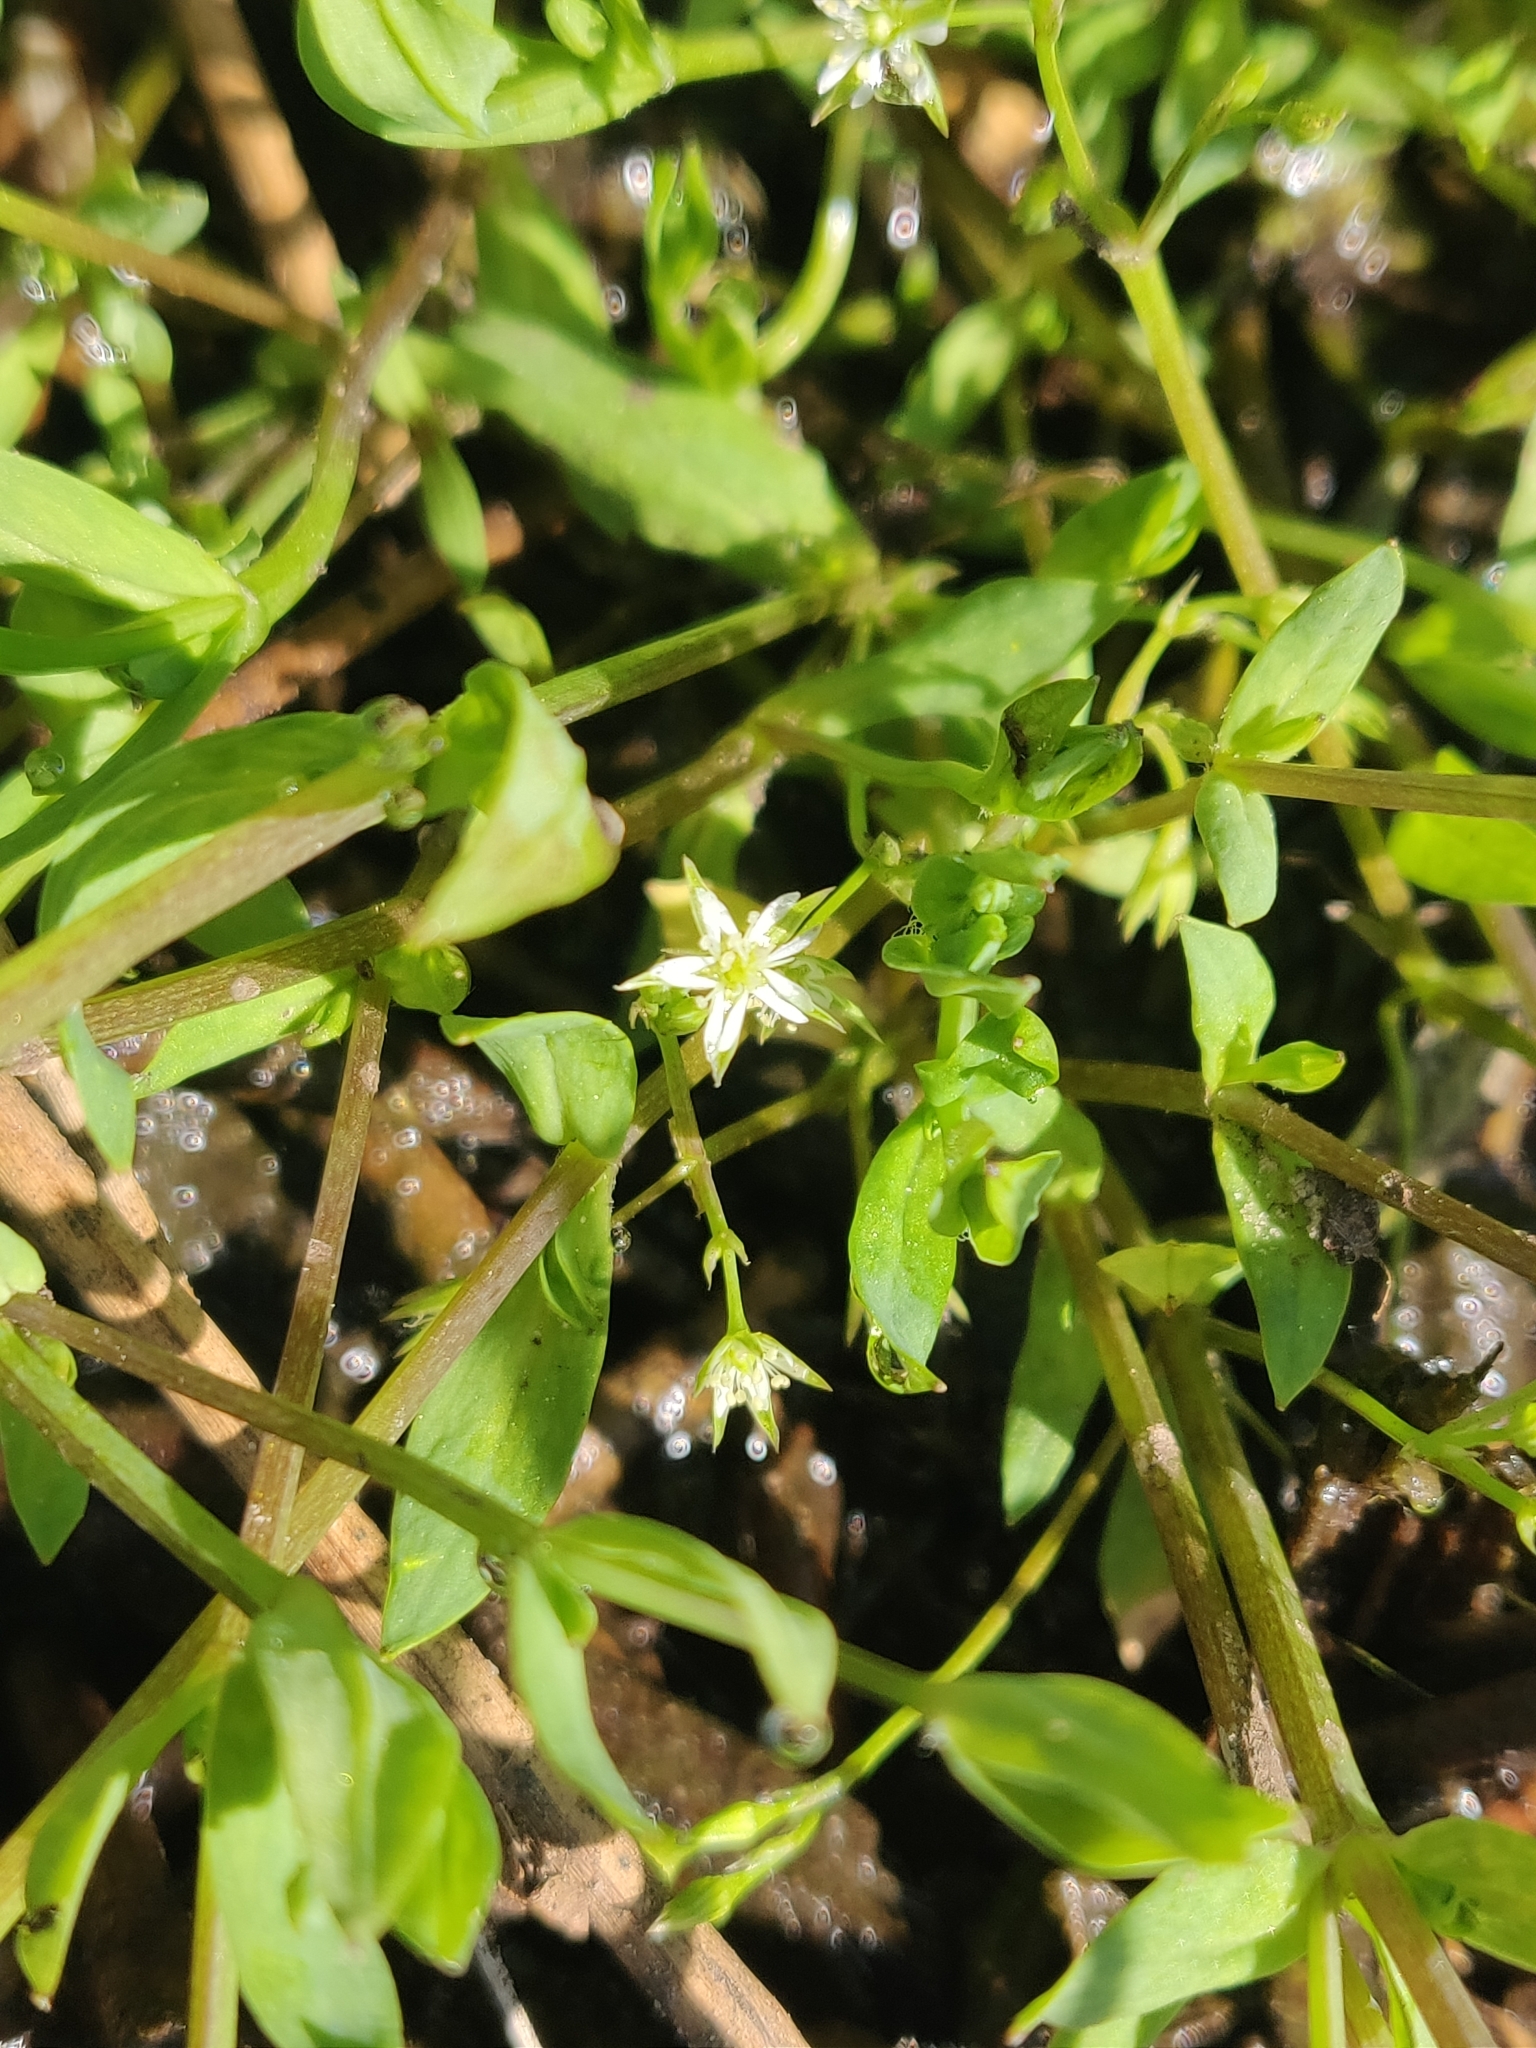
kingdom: Plantae
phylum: Tracheophyta
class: Magnoliopsida
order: Caryophyllales
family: Caryophyllaceae
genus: Stellaria
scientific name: Stellaria alsine
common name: Bog stitchwort
